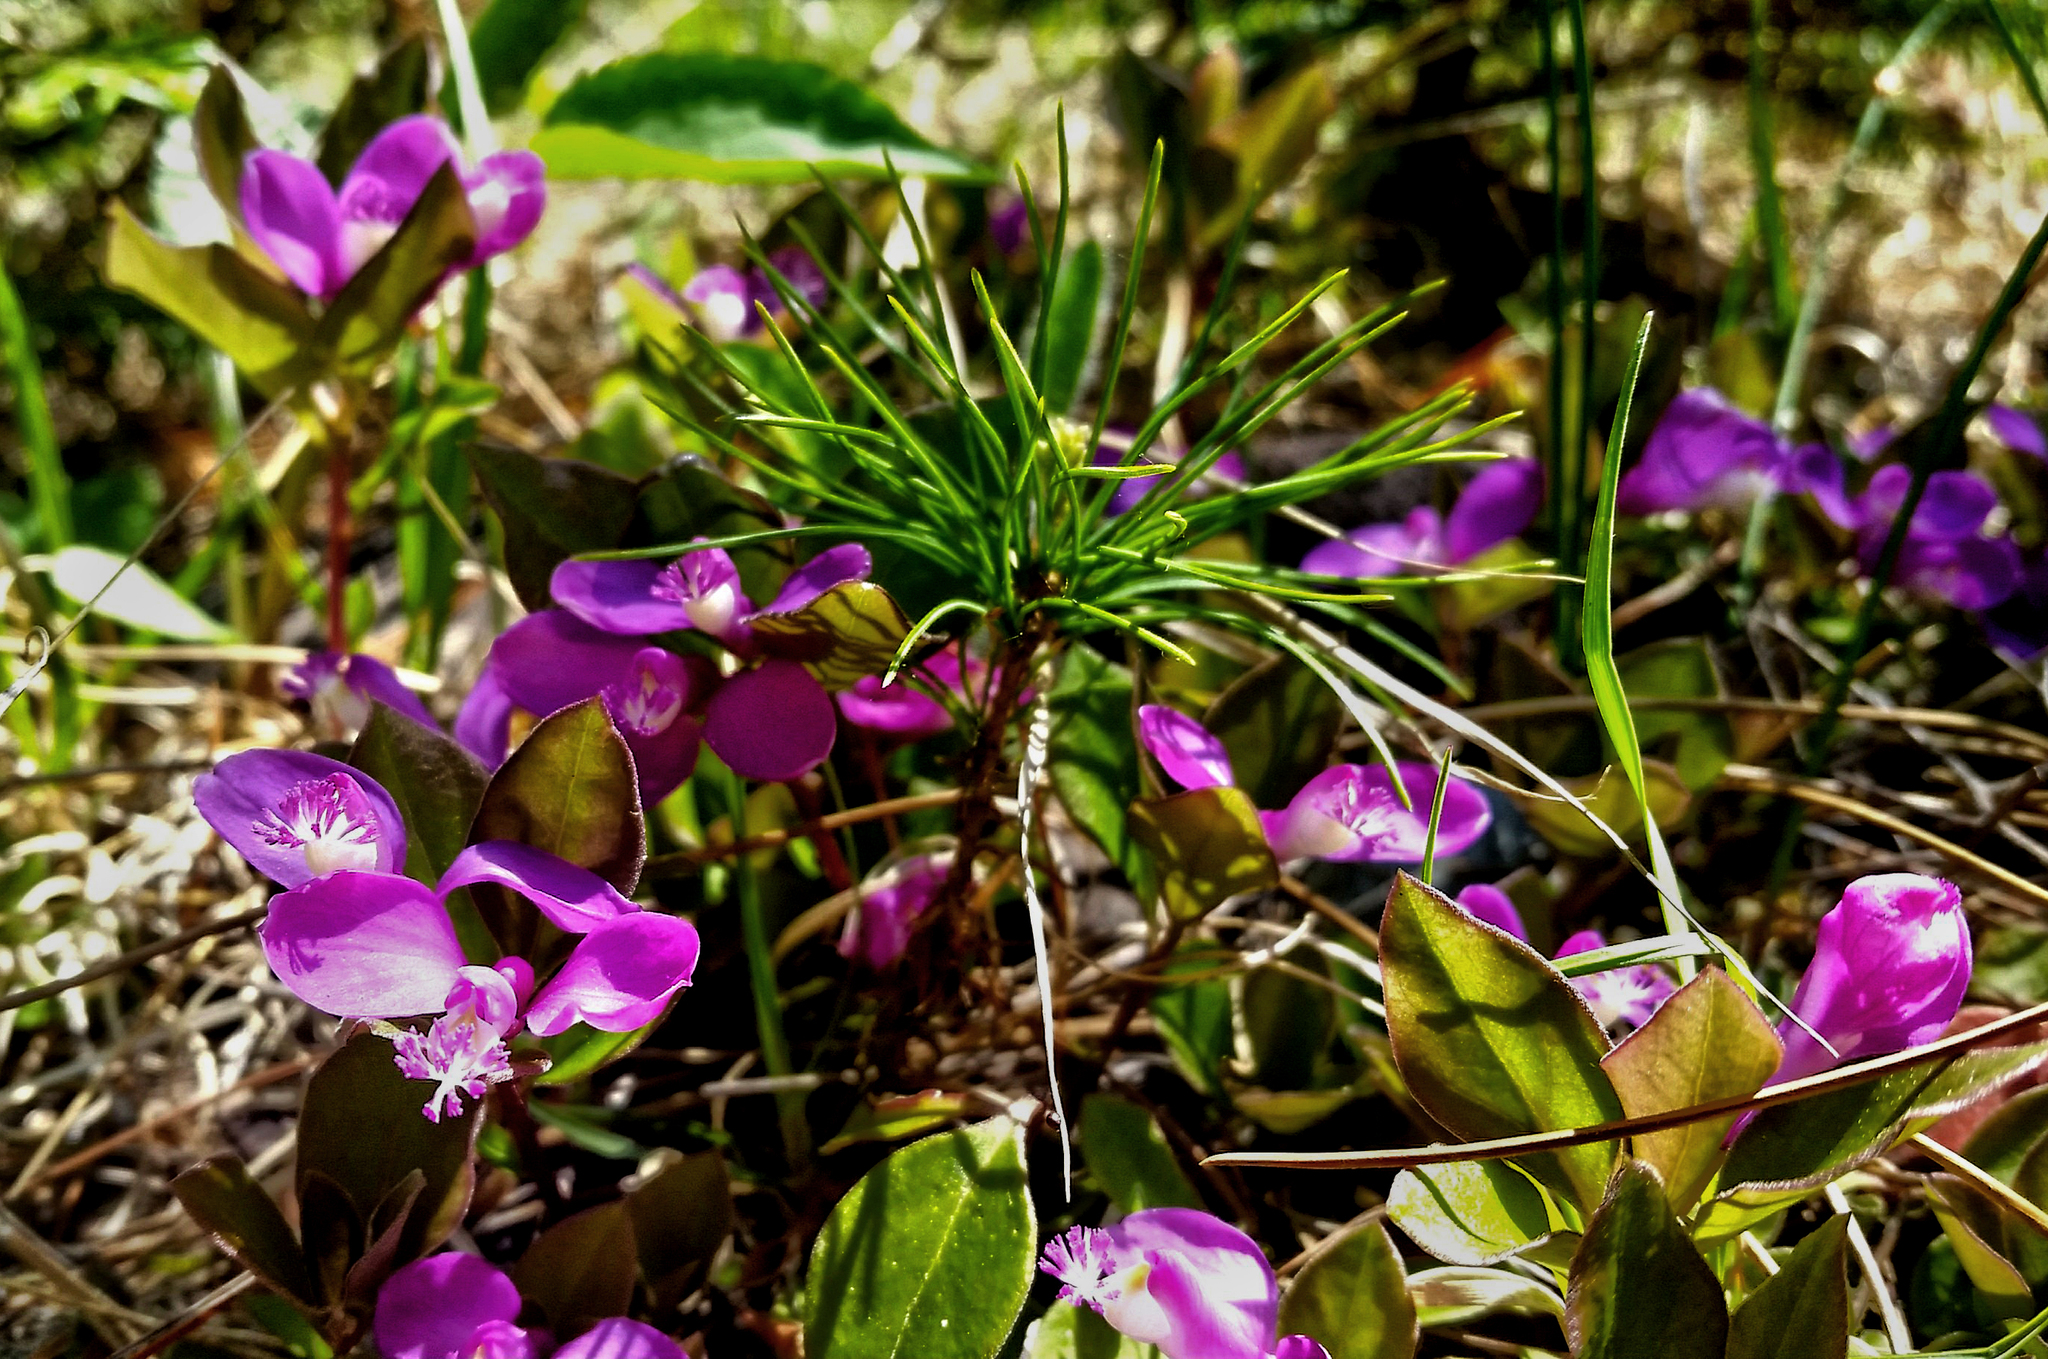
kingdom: Plantae
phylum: Tracheophyta
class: Magnoliopsida
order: Fabales
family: Polygalaceae
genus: Polygaloides
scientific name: Polygaloides paucifolia
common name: Bird-on-the-wing
